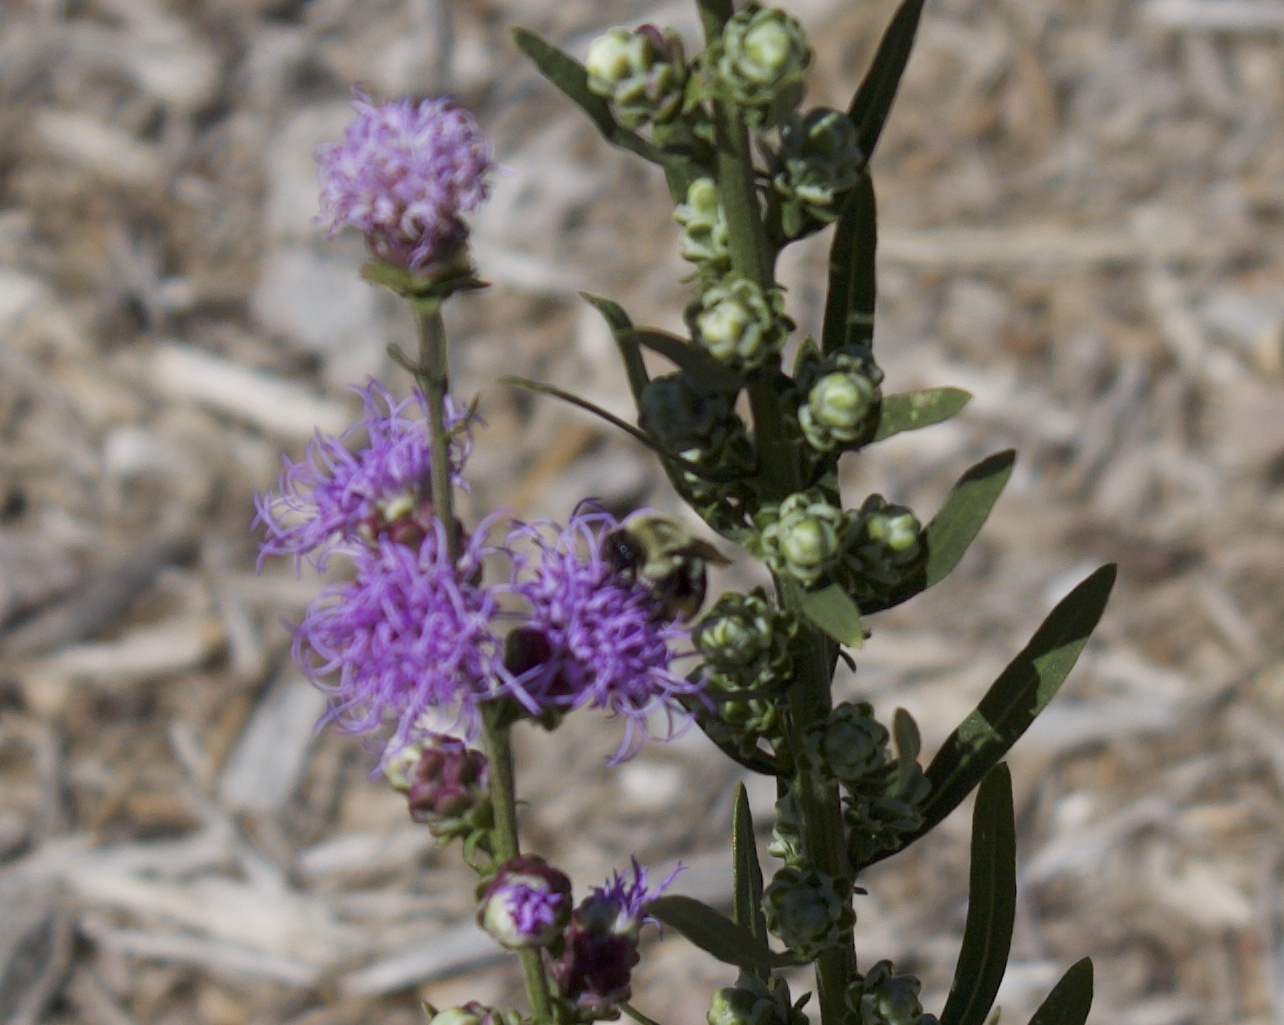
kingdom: Animalia
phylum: Arthropoda
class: Insecta
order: Hymenoptera
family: Apidae
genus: Bombus
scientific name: Bombus impatiens
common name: Common eastern bumble bee
